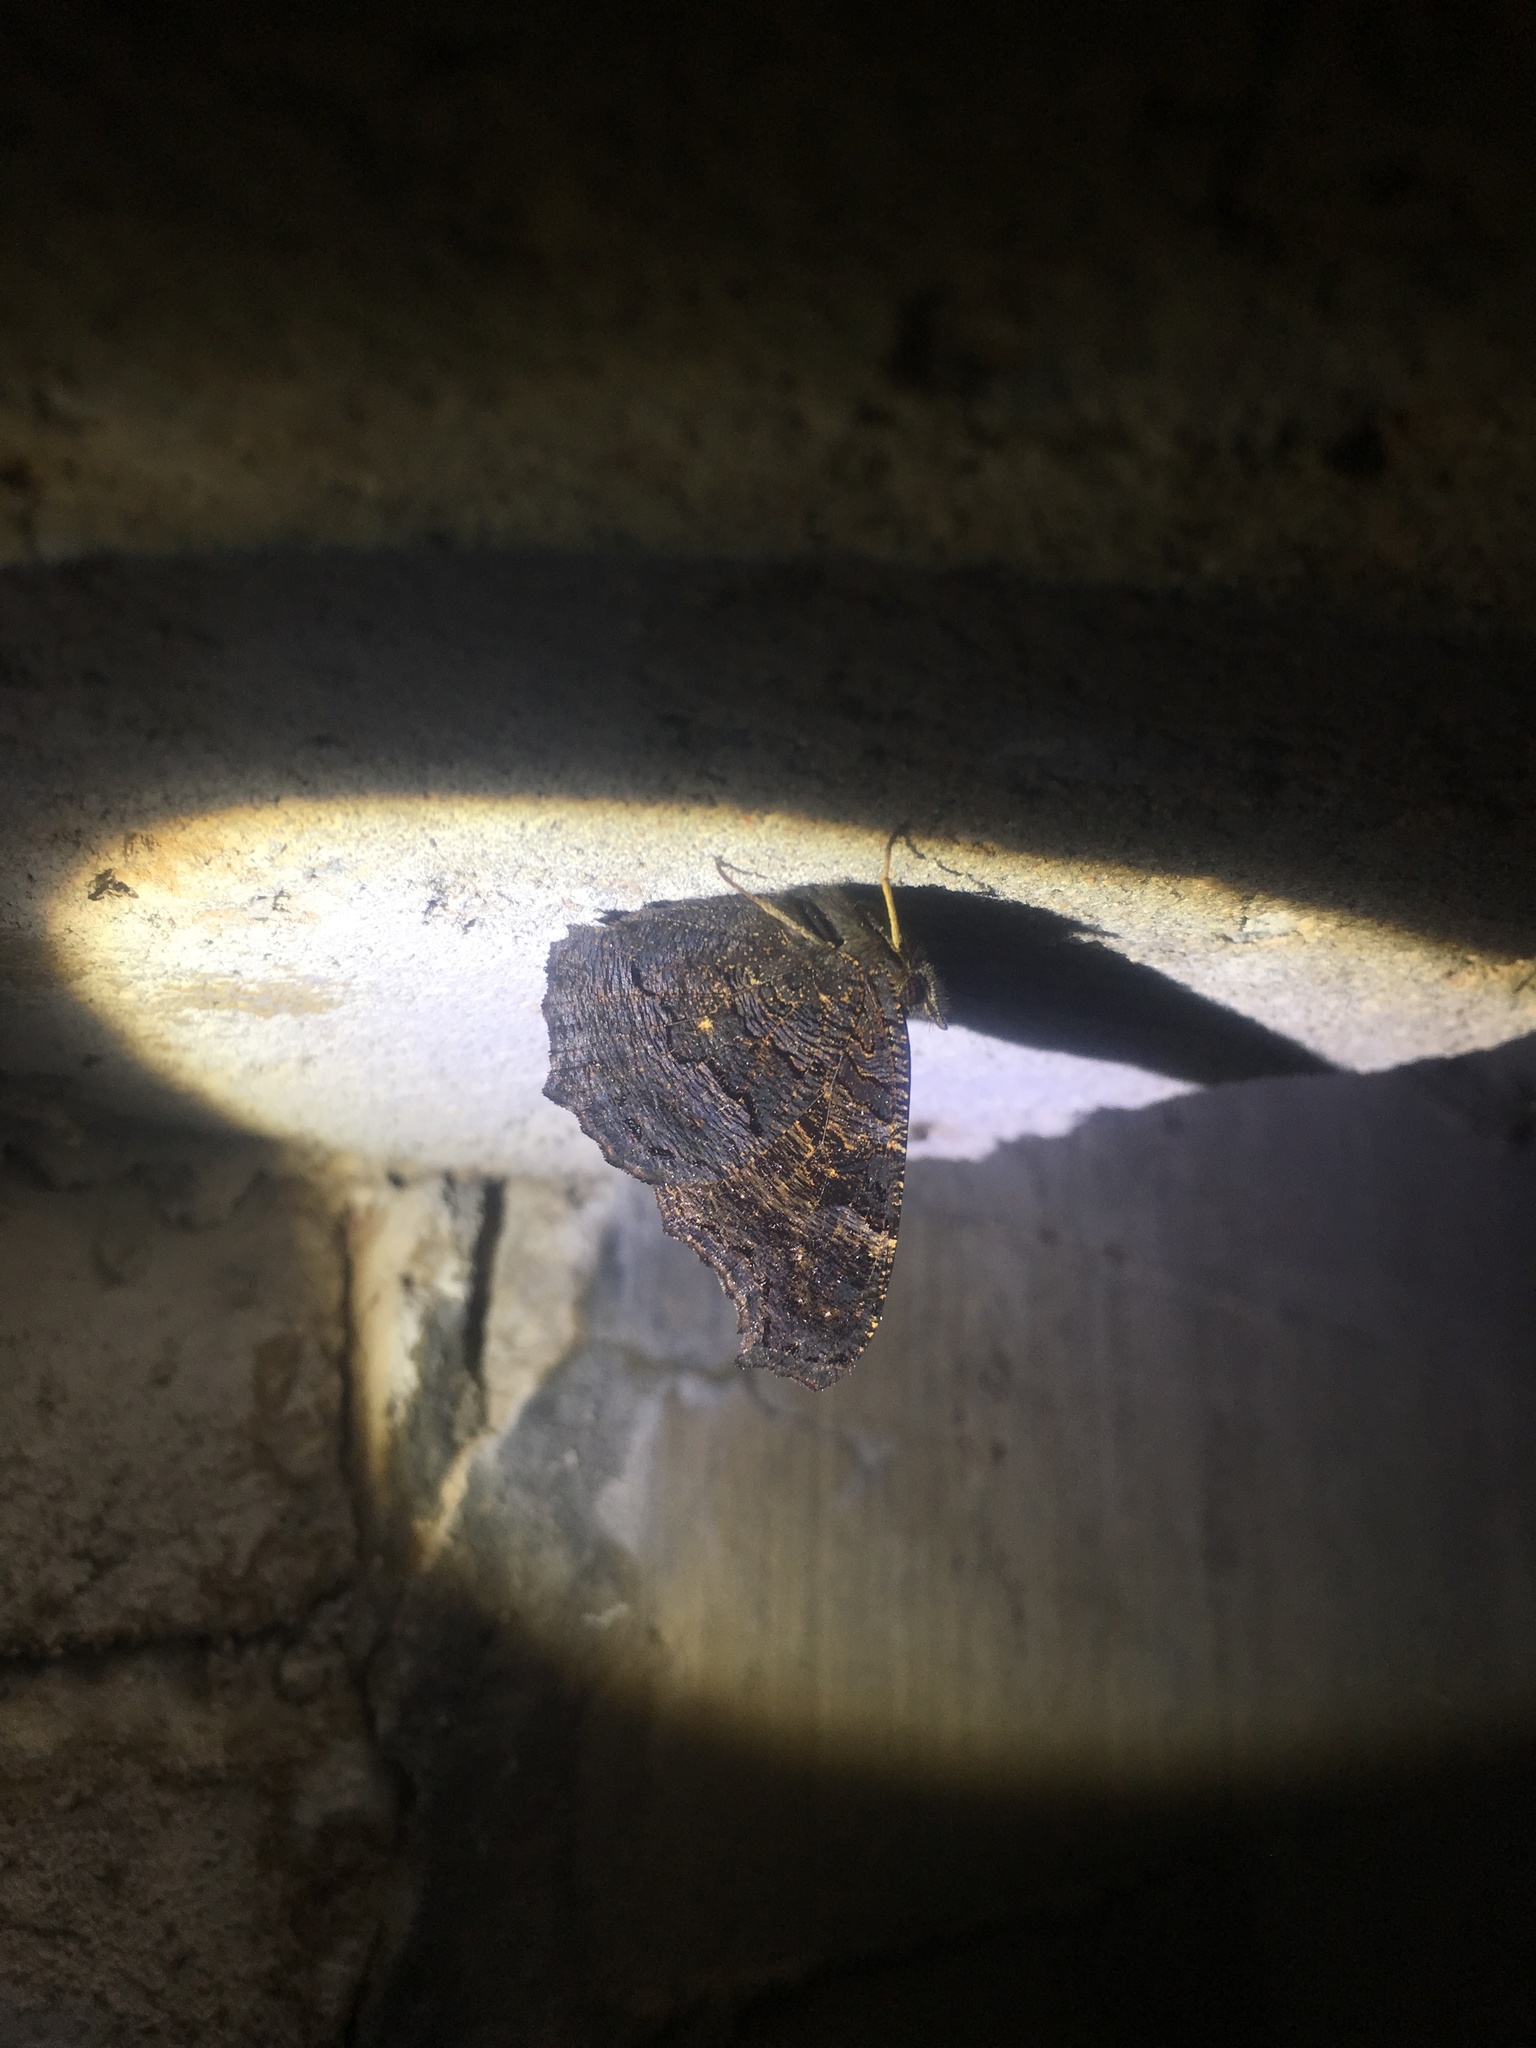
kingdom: Animalia
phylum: Arthropoda
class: Insecta
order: Lepidoptera
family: Nymphalidae
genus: Aglais
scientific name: Aglais io
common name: Peacock
